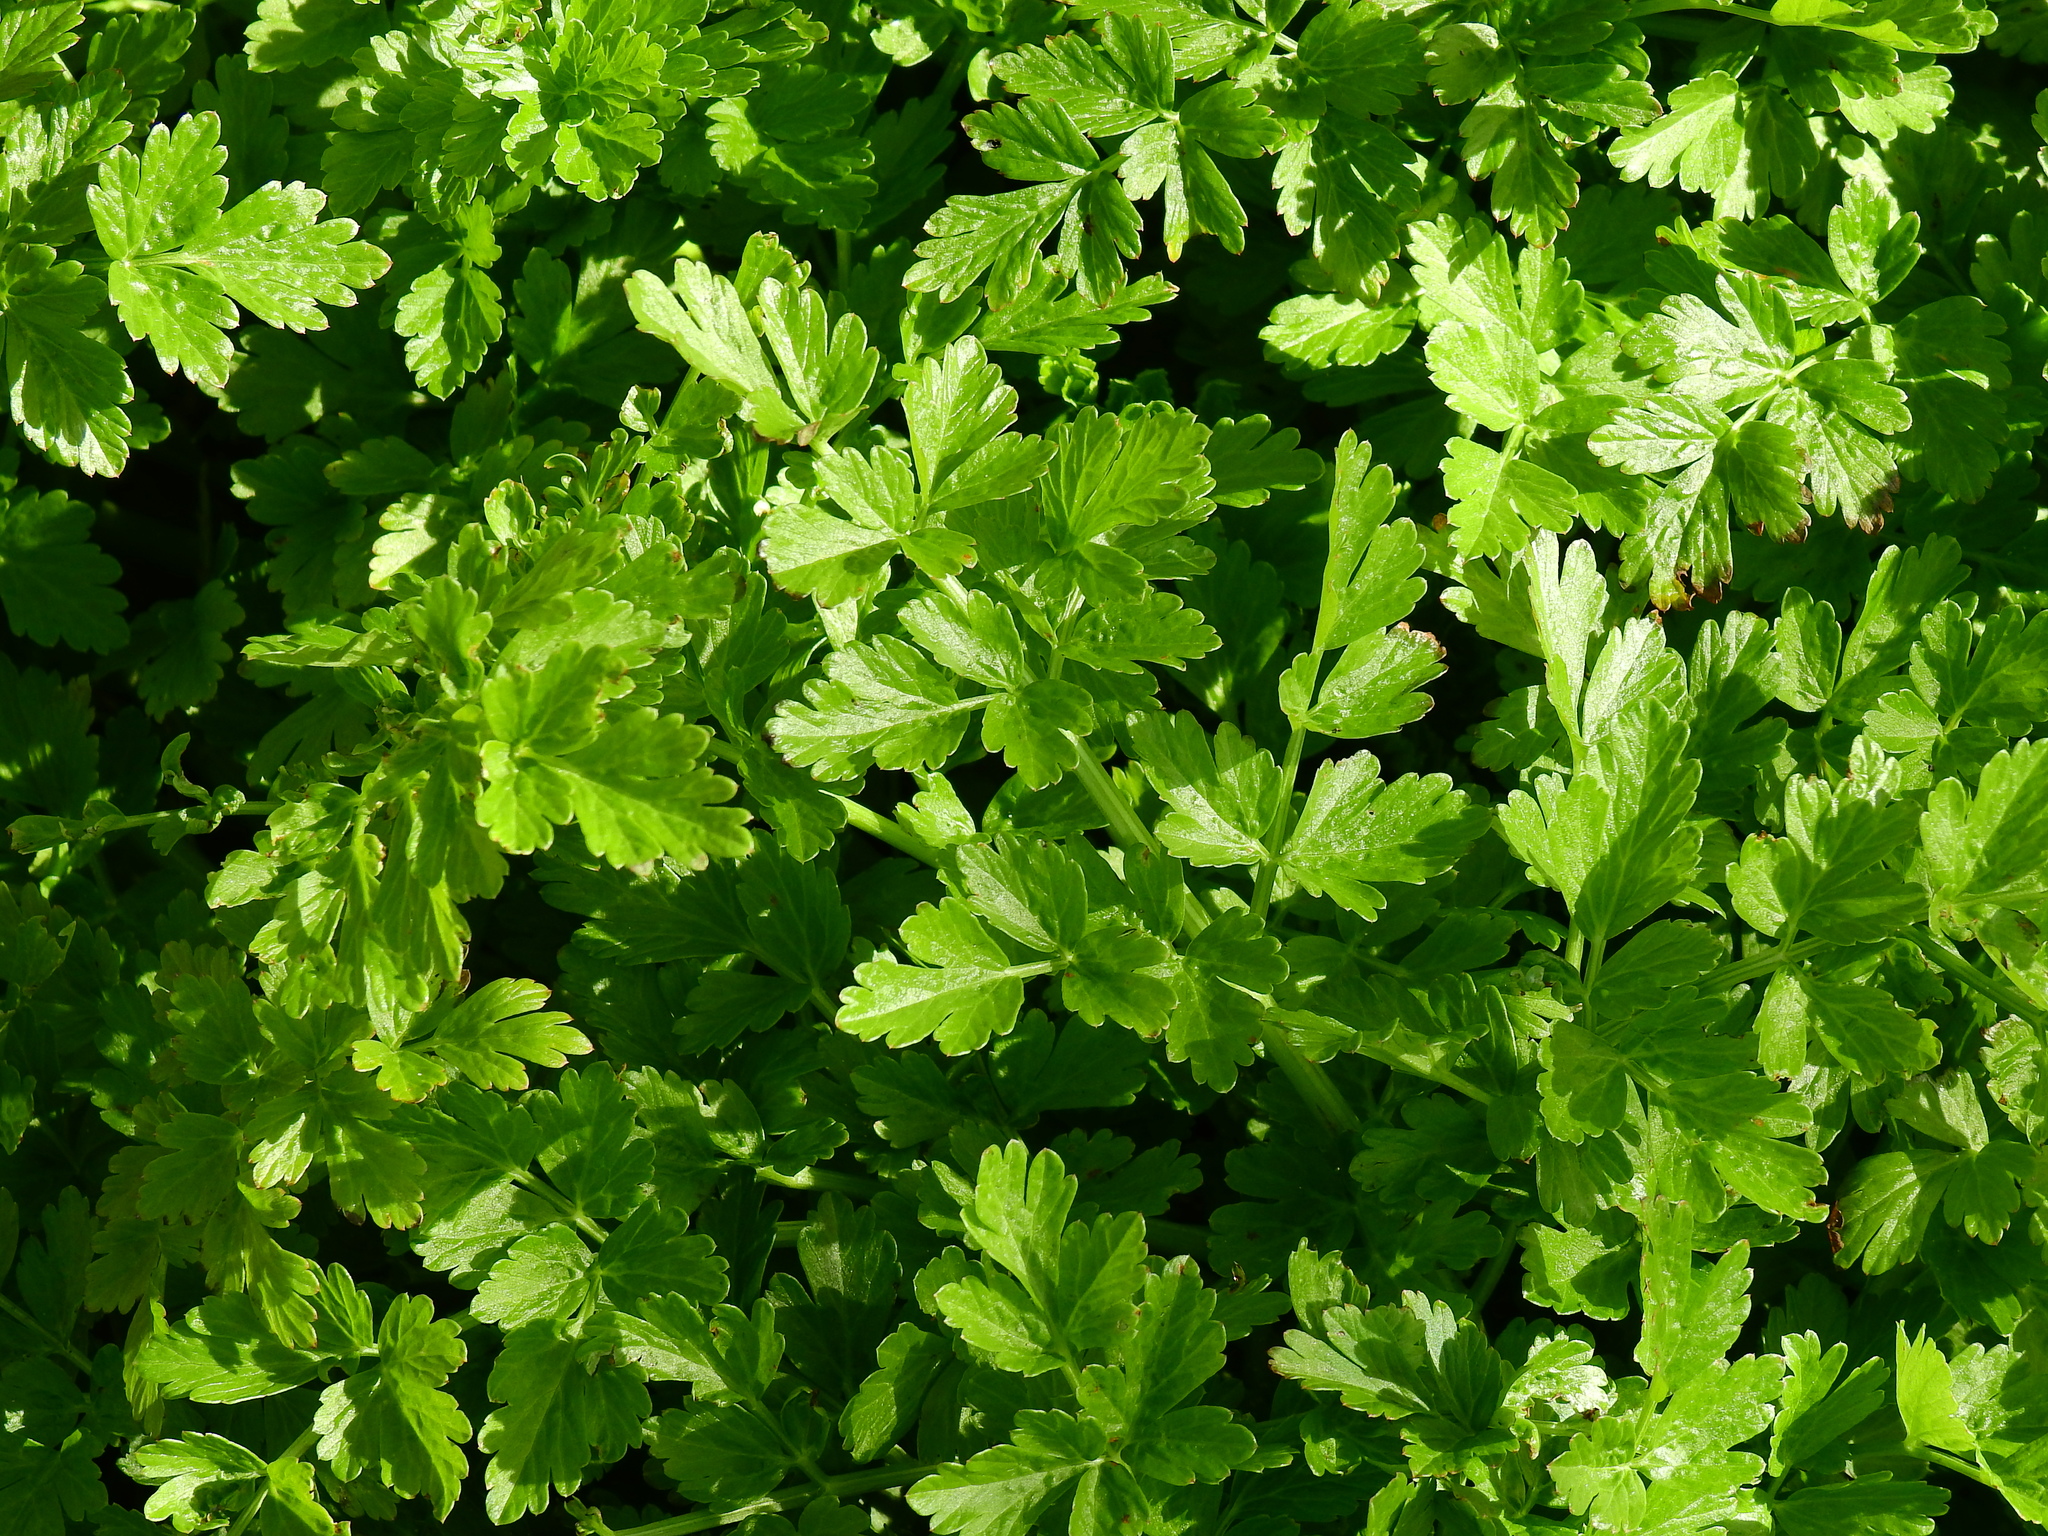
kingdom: Plantae
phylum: Tracheophyta
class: Magnoliopsida
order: Apiales
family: Apiaceae
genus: Oenanthe
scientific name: Oenanthe crocata
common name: Hemlock water-dropwort
